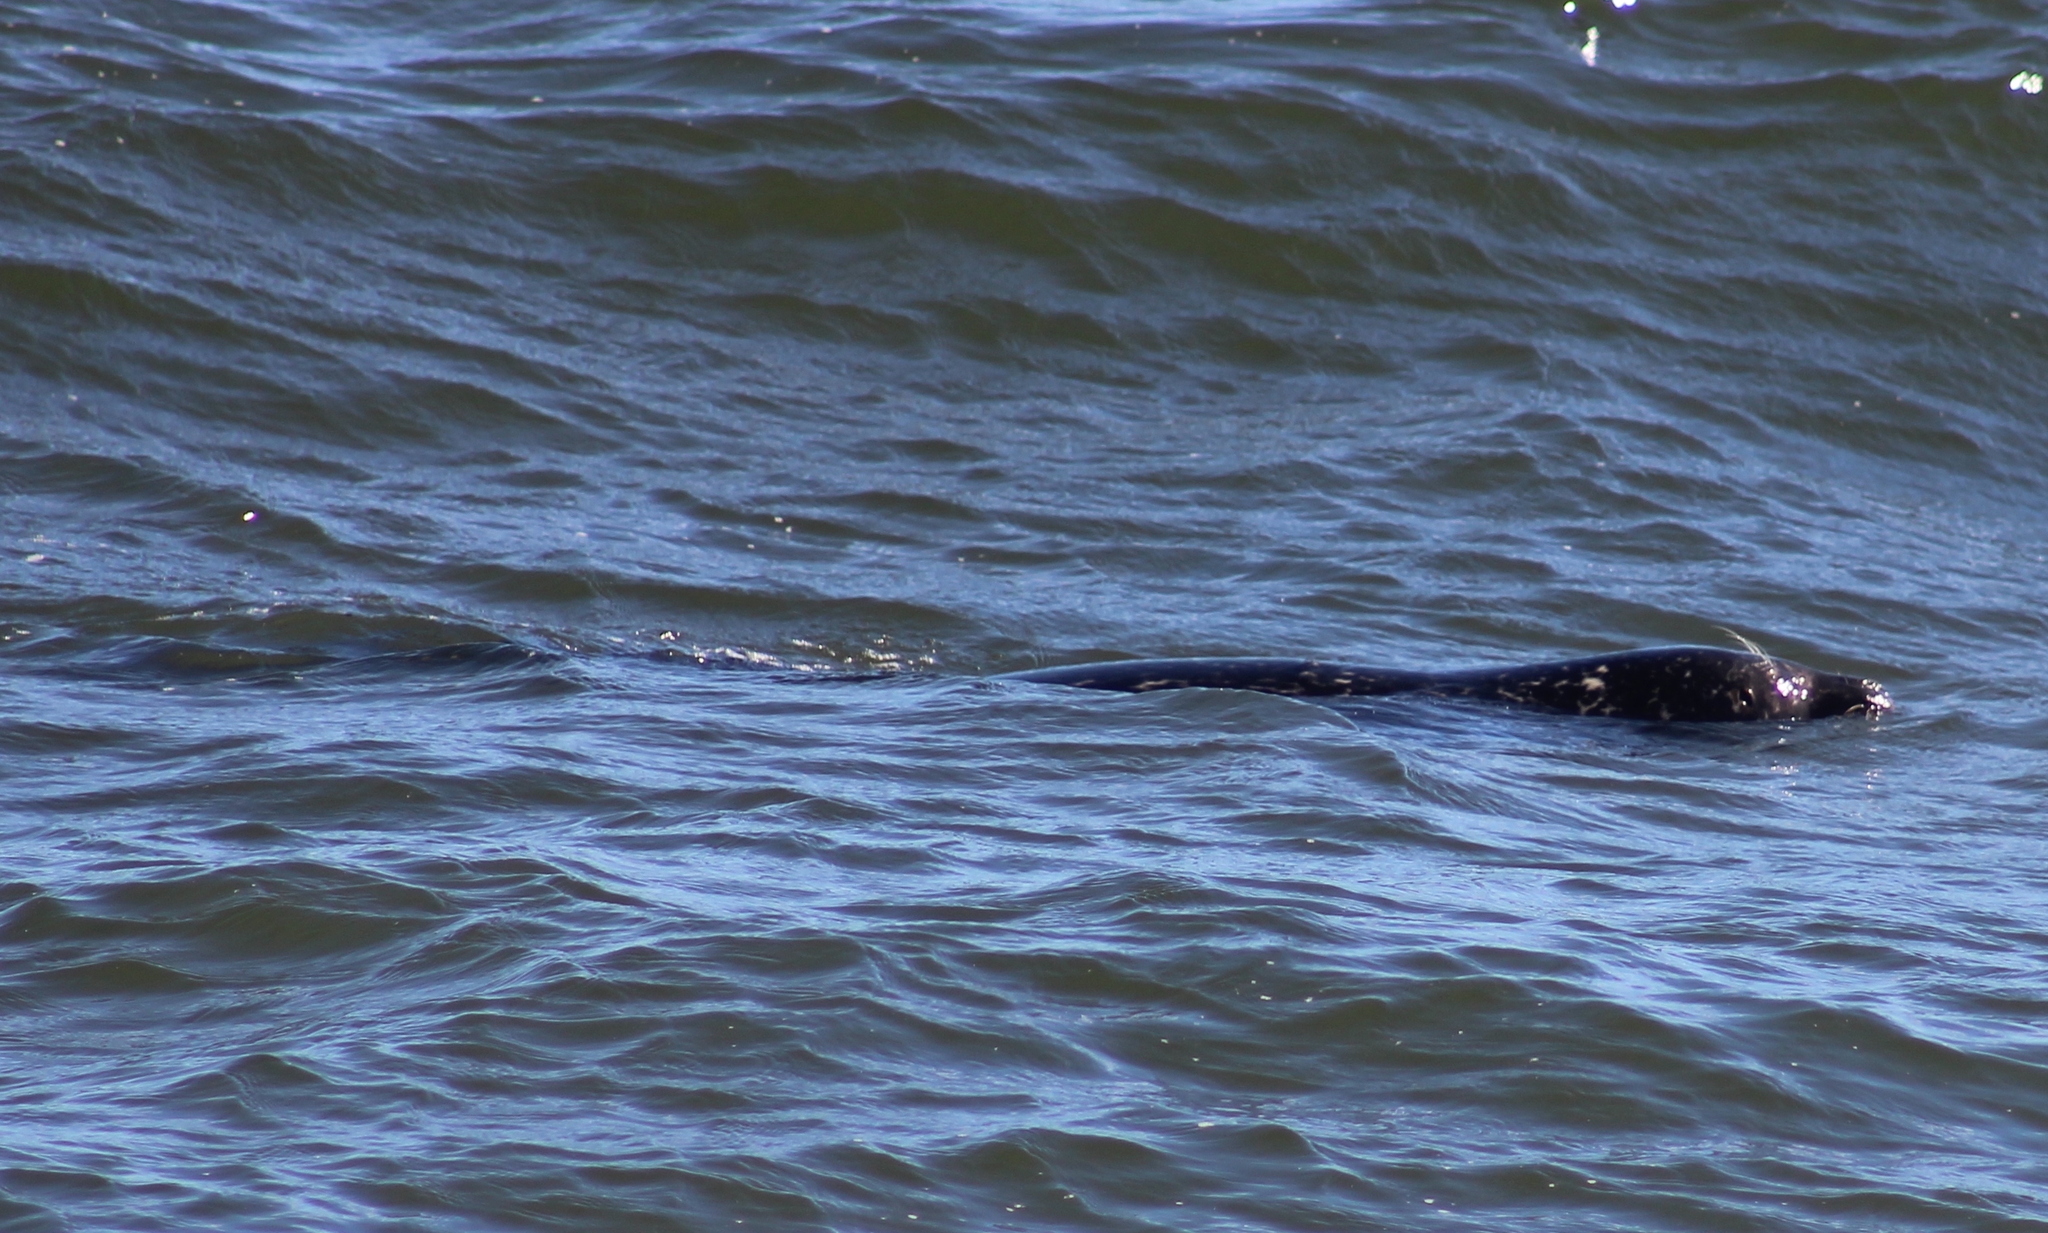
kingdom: Animalia
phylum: Chordata
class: Mammalia
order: Carnivora
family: Phocidae
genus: Phoca
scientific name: Phoca vitulina
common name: Harbor seal
